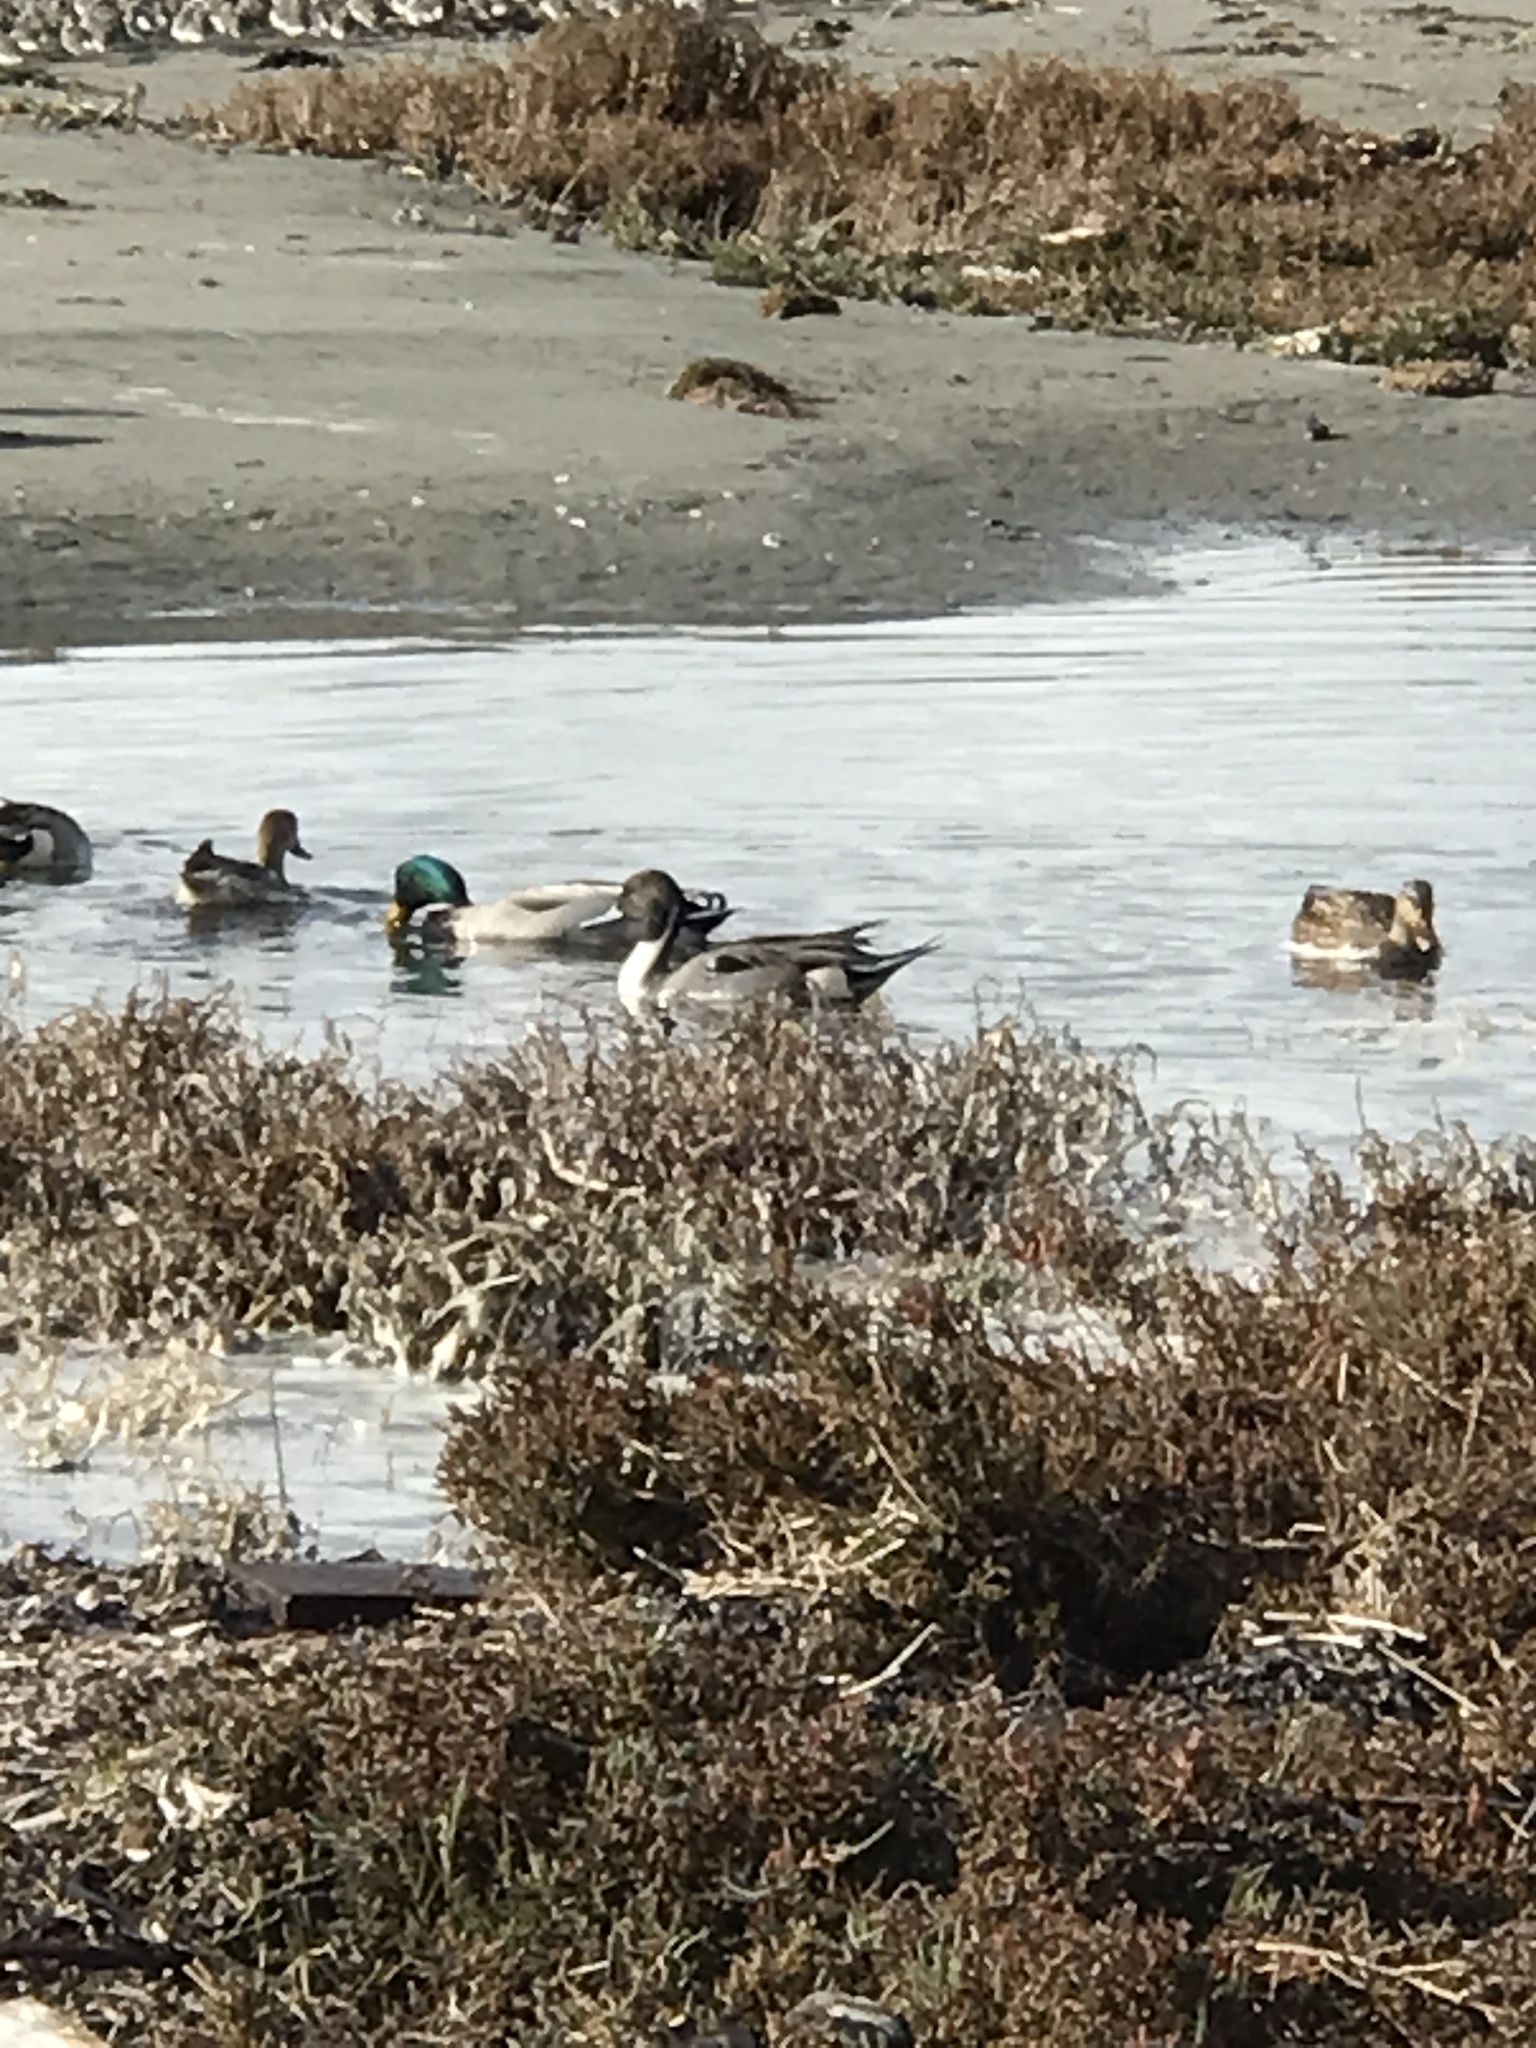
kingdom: Animalia
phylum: Chordata
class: Aves
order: Anseriformes
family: Anatidae
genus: Anas
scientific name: Anas acuta
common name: Northern pintail
